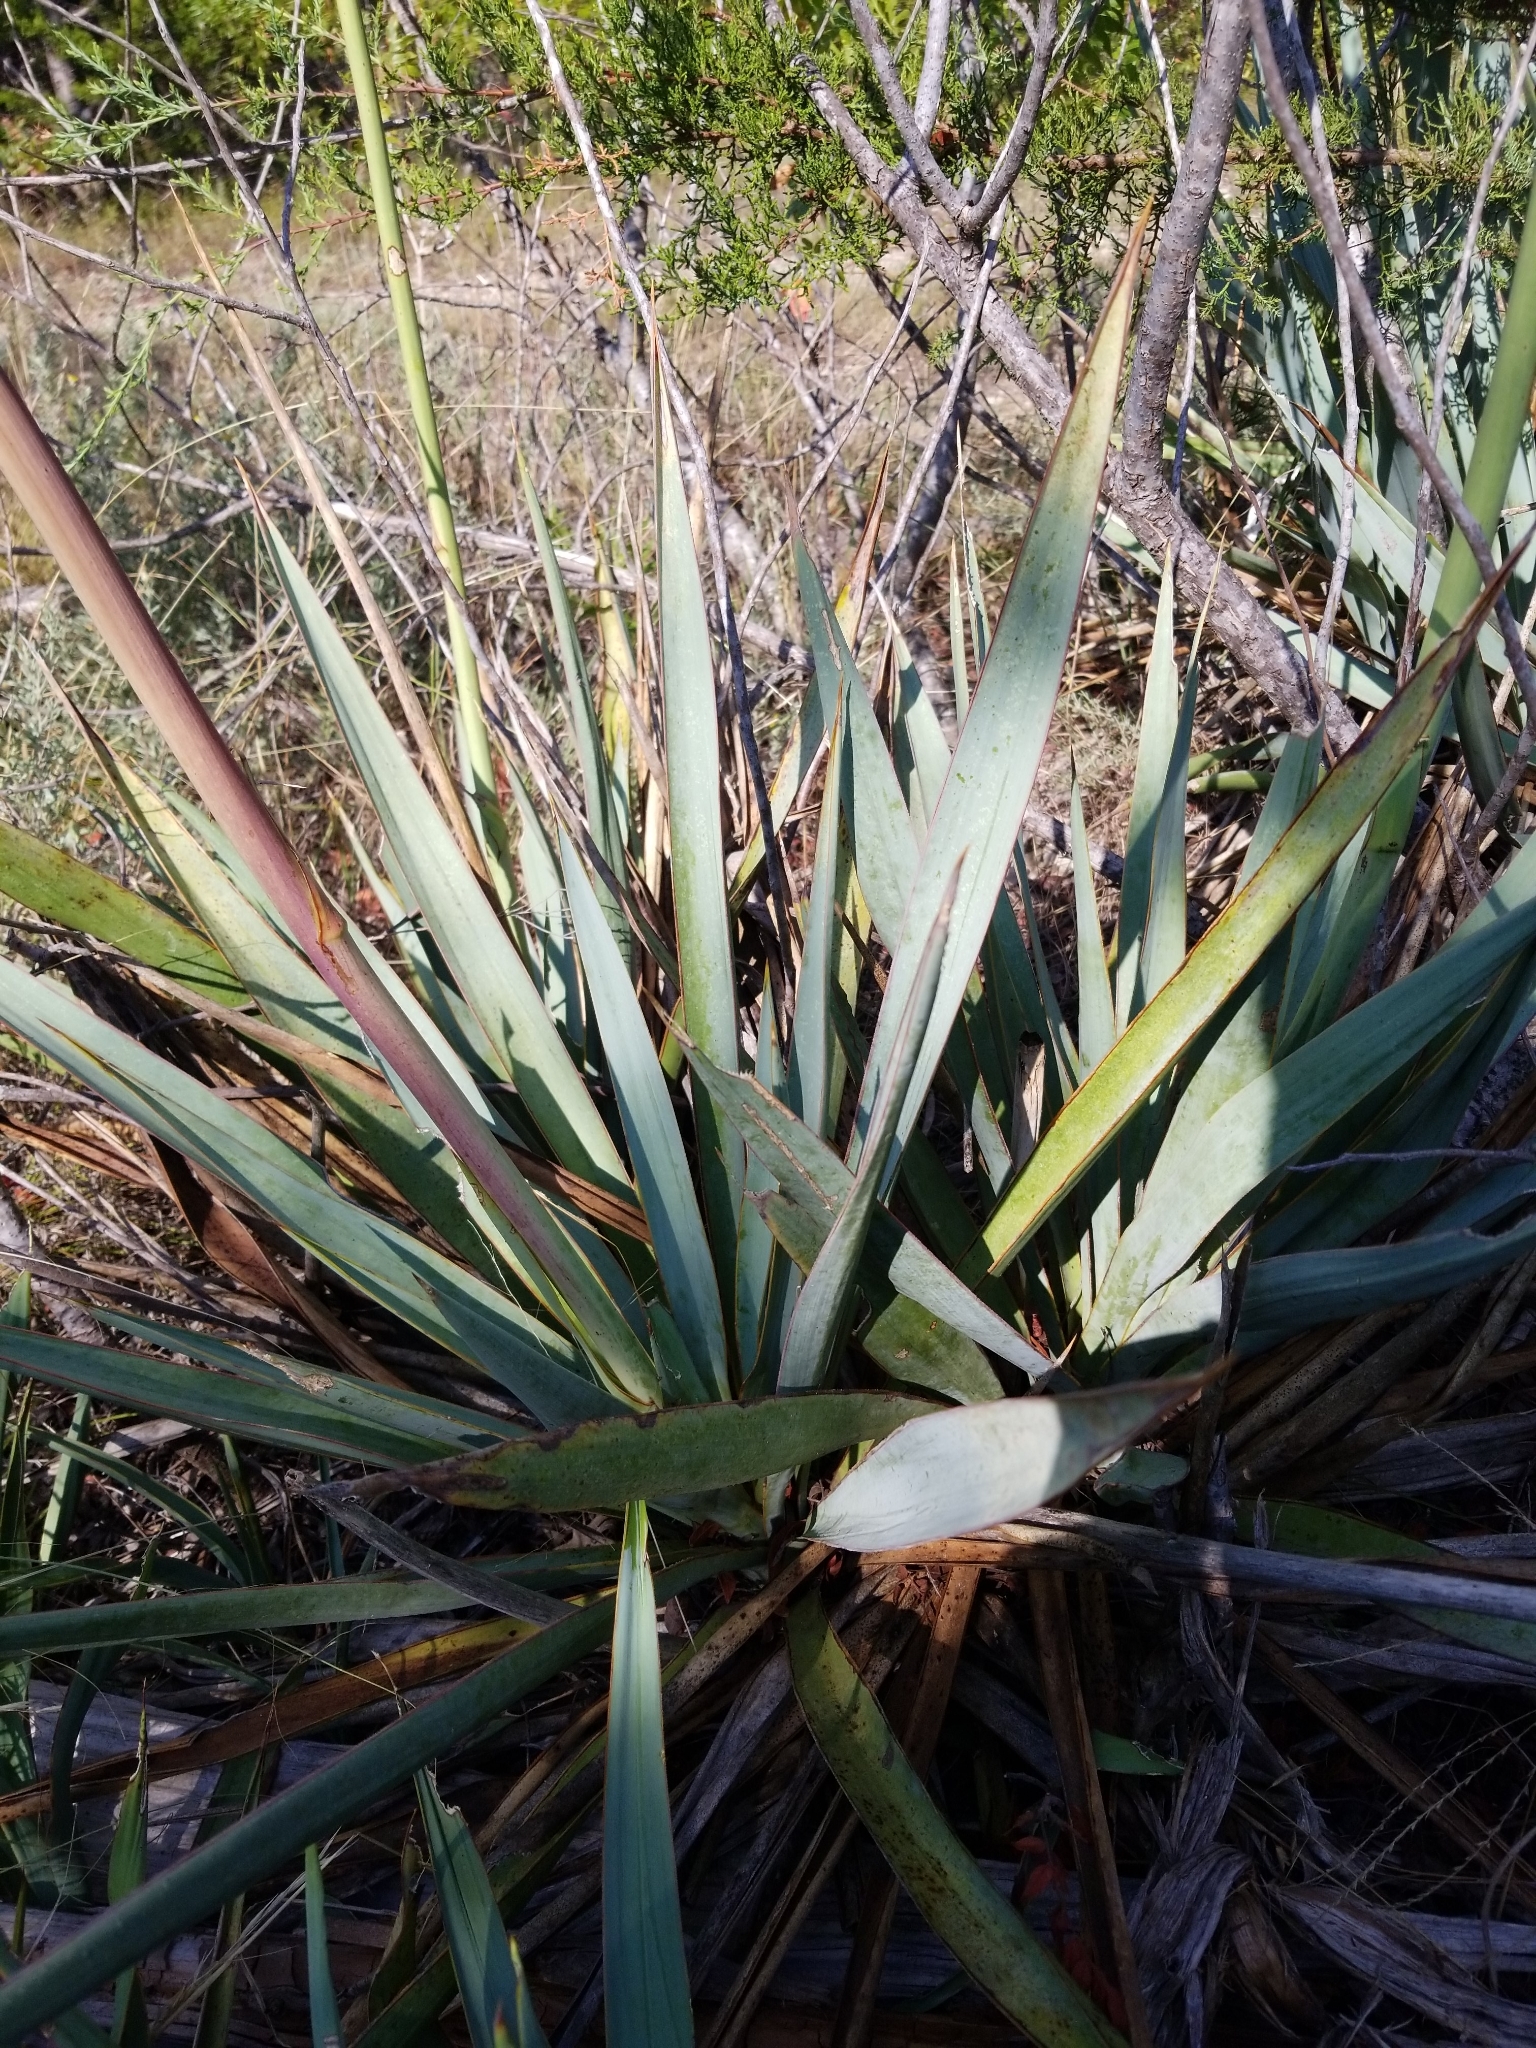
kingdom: Plantae
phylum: Tracheophyta
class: Liliopsida
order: Asparagales
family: Asparagaceae
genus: Yucca
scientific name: Yucca pallida
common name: Pale leaf yucca
